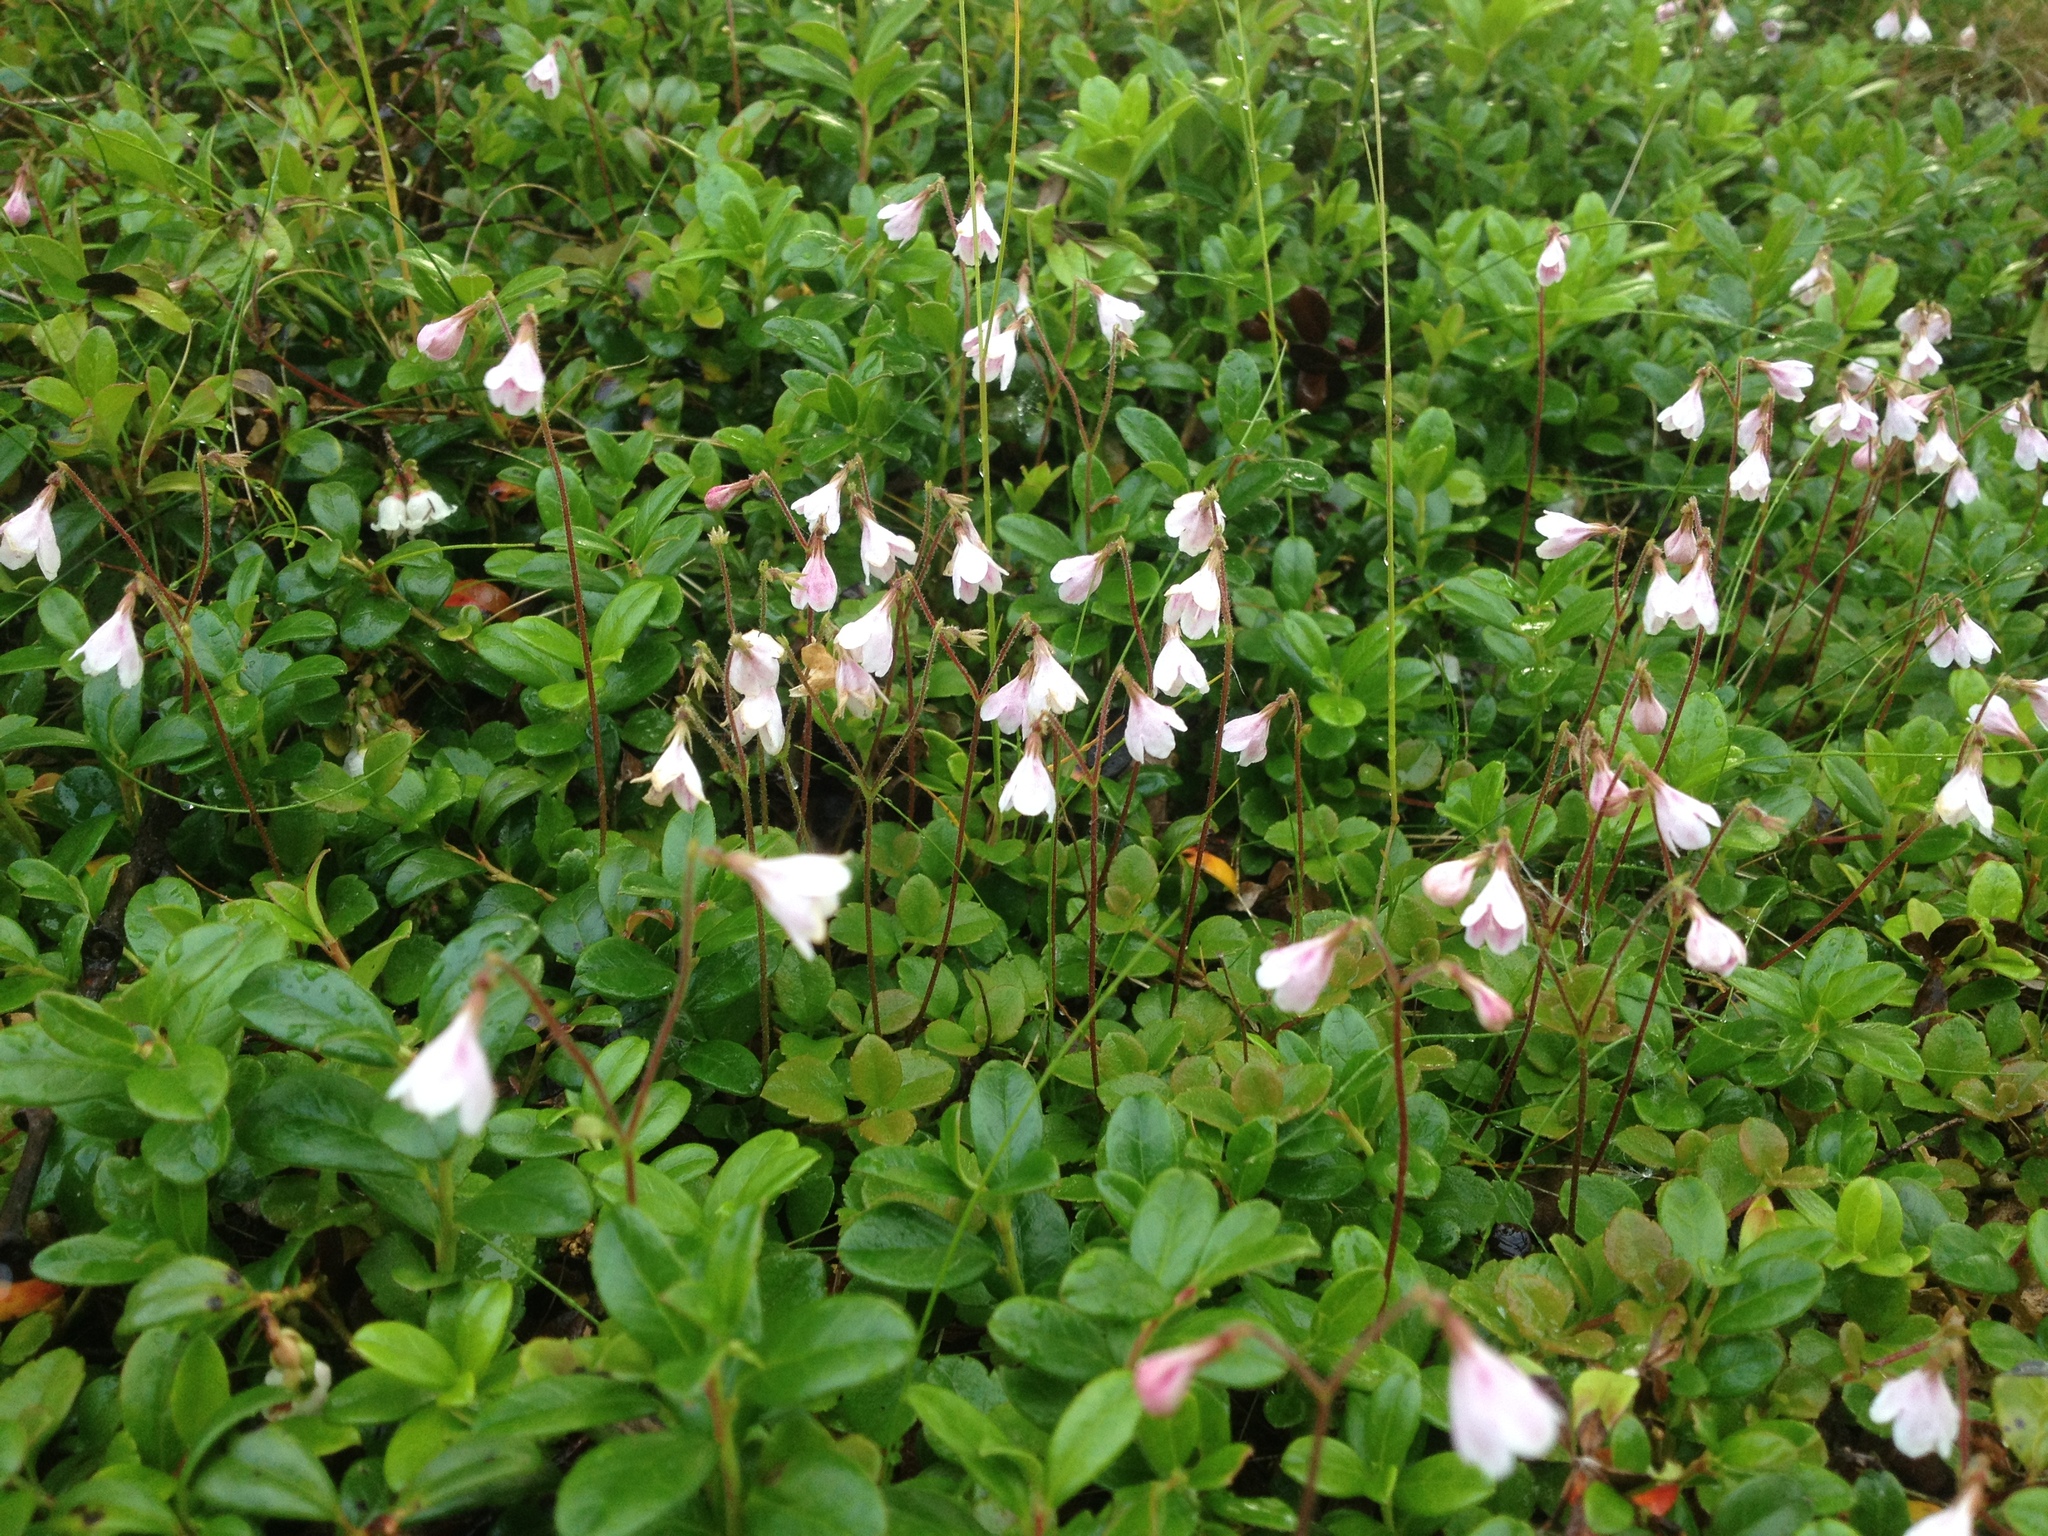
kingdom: Plantae
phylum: Tracheophyta
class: Magnoliopsida
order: Dipsacales
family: Caprifoliaceae
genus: Linnaea
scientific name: Linnaea borealis
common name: Twinflower
